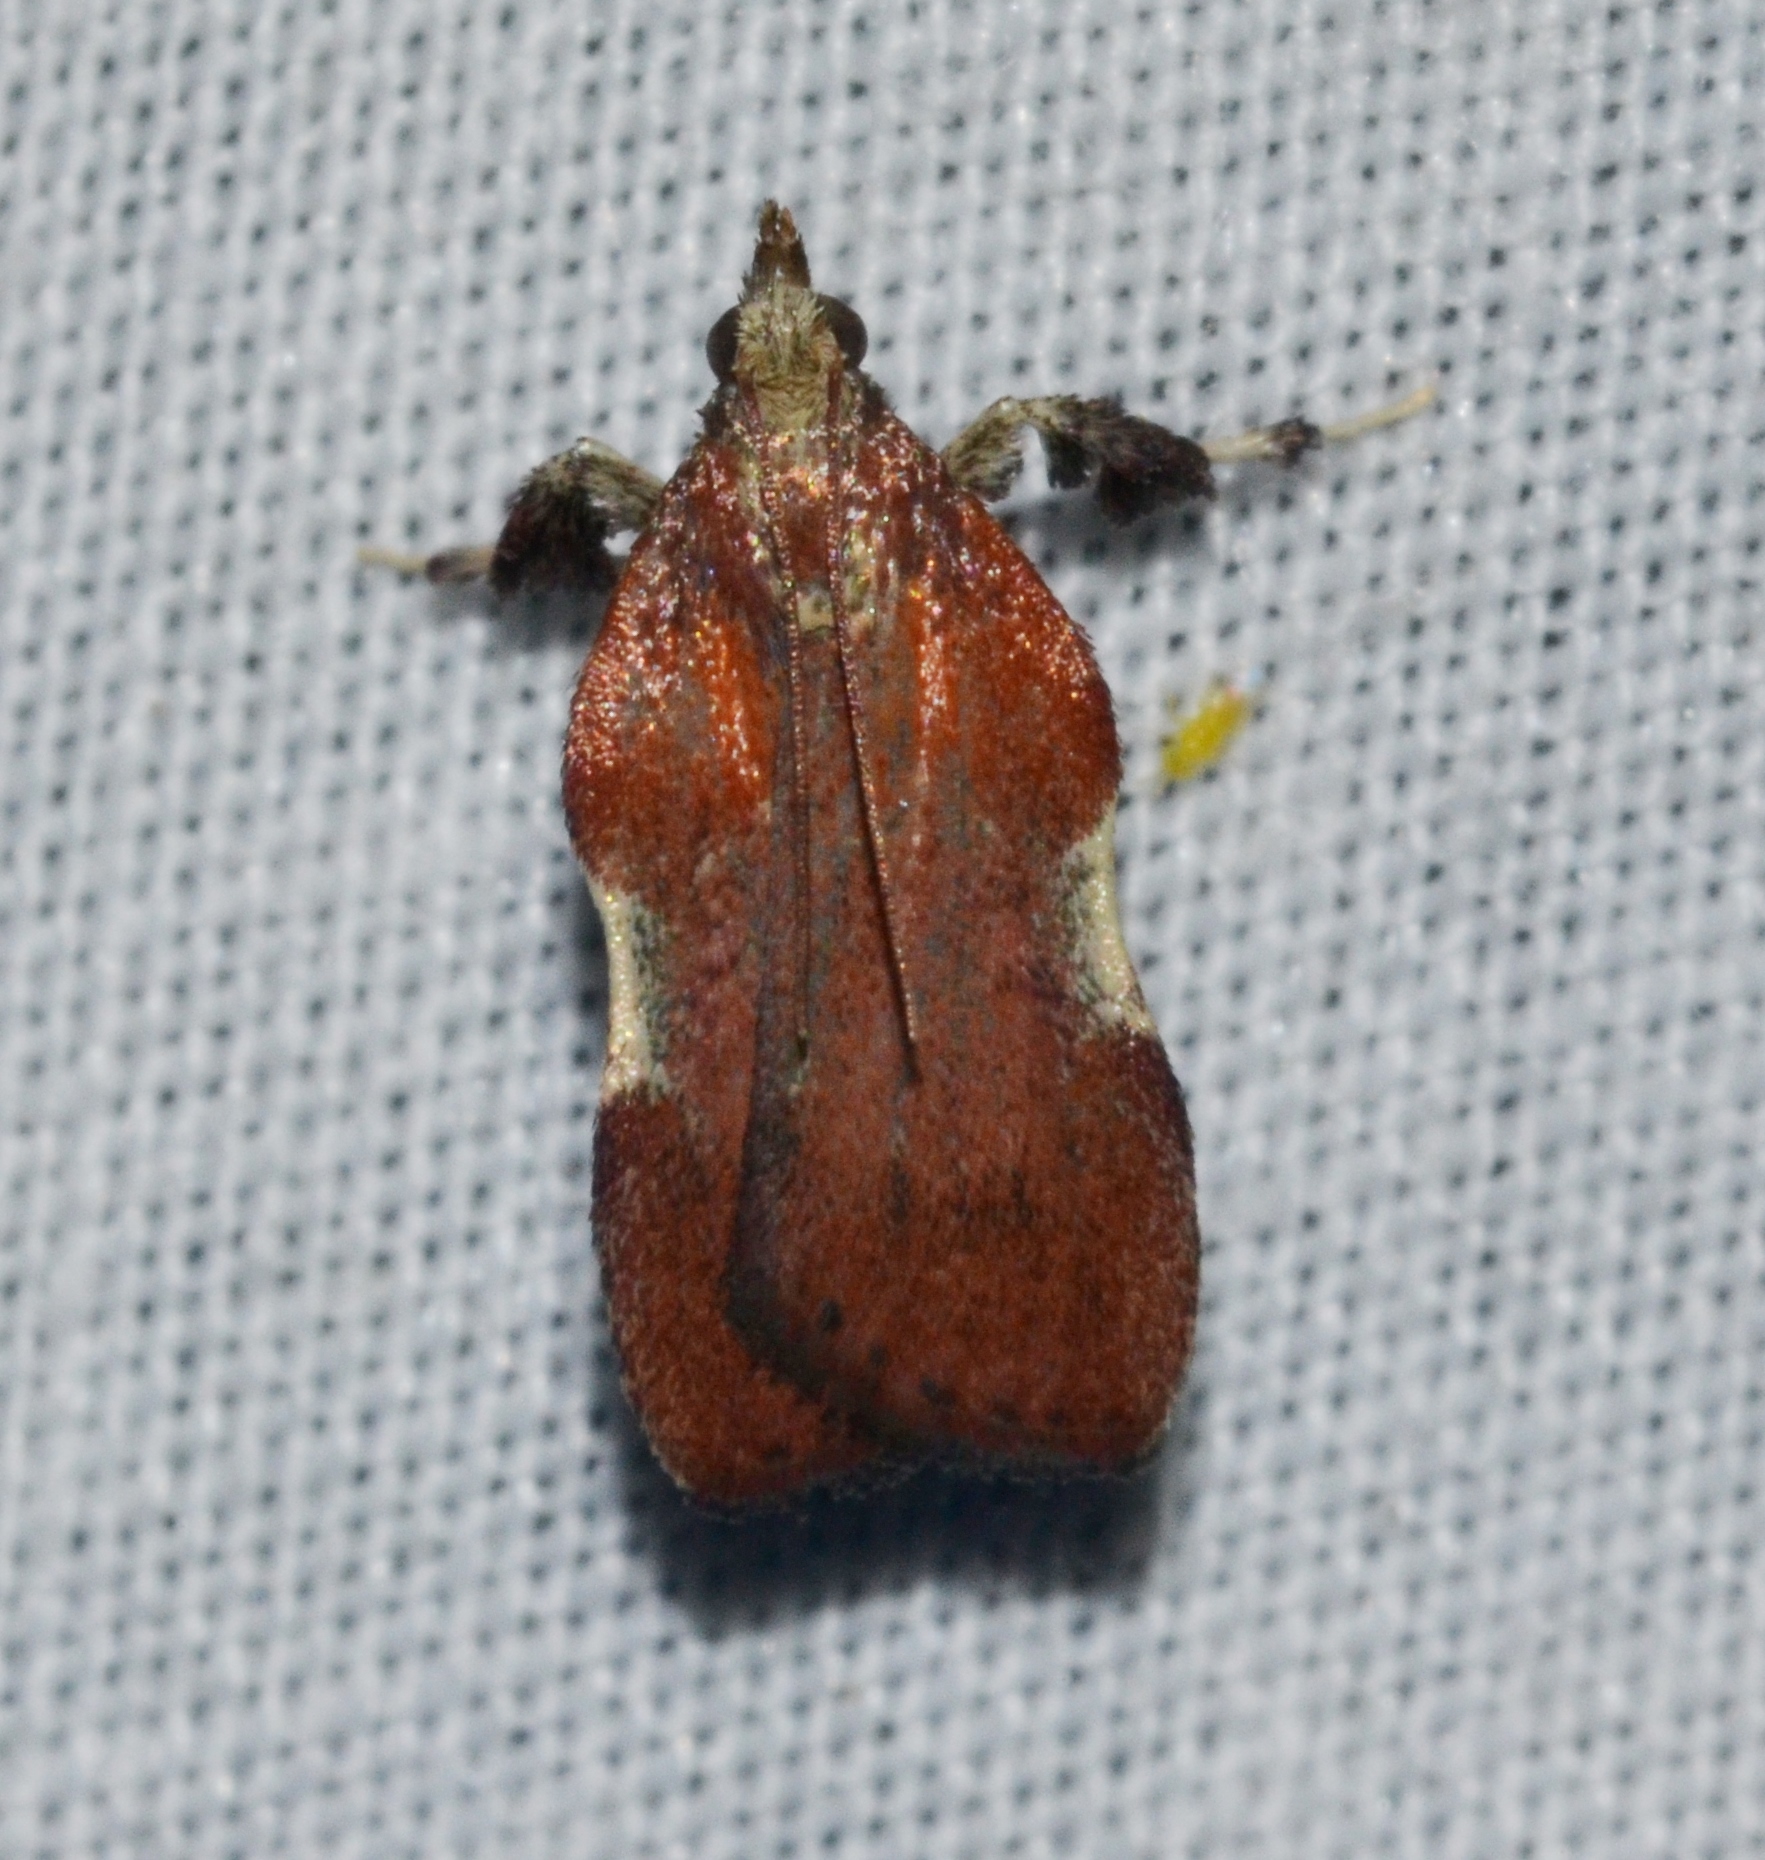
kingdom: Animalia
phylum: Arthropoda
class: Insecta
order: Lepidoptera
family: Pyralidae
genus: Galasa
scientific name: Galasa nigrinodis
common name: Boxwood leaftier moth
